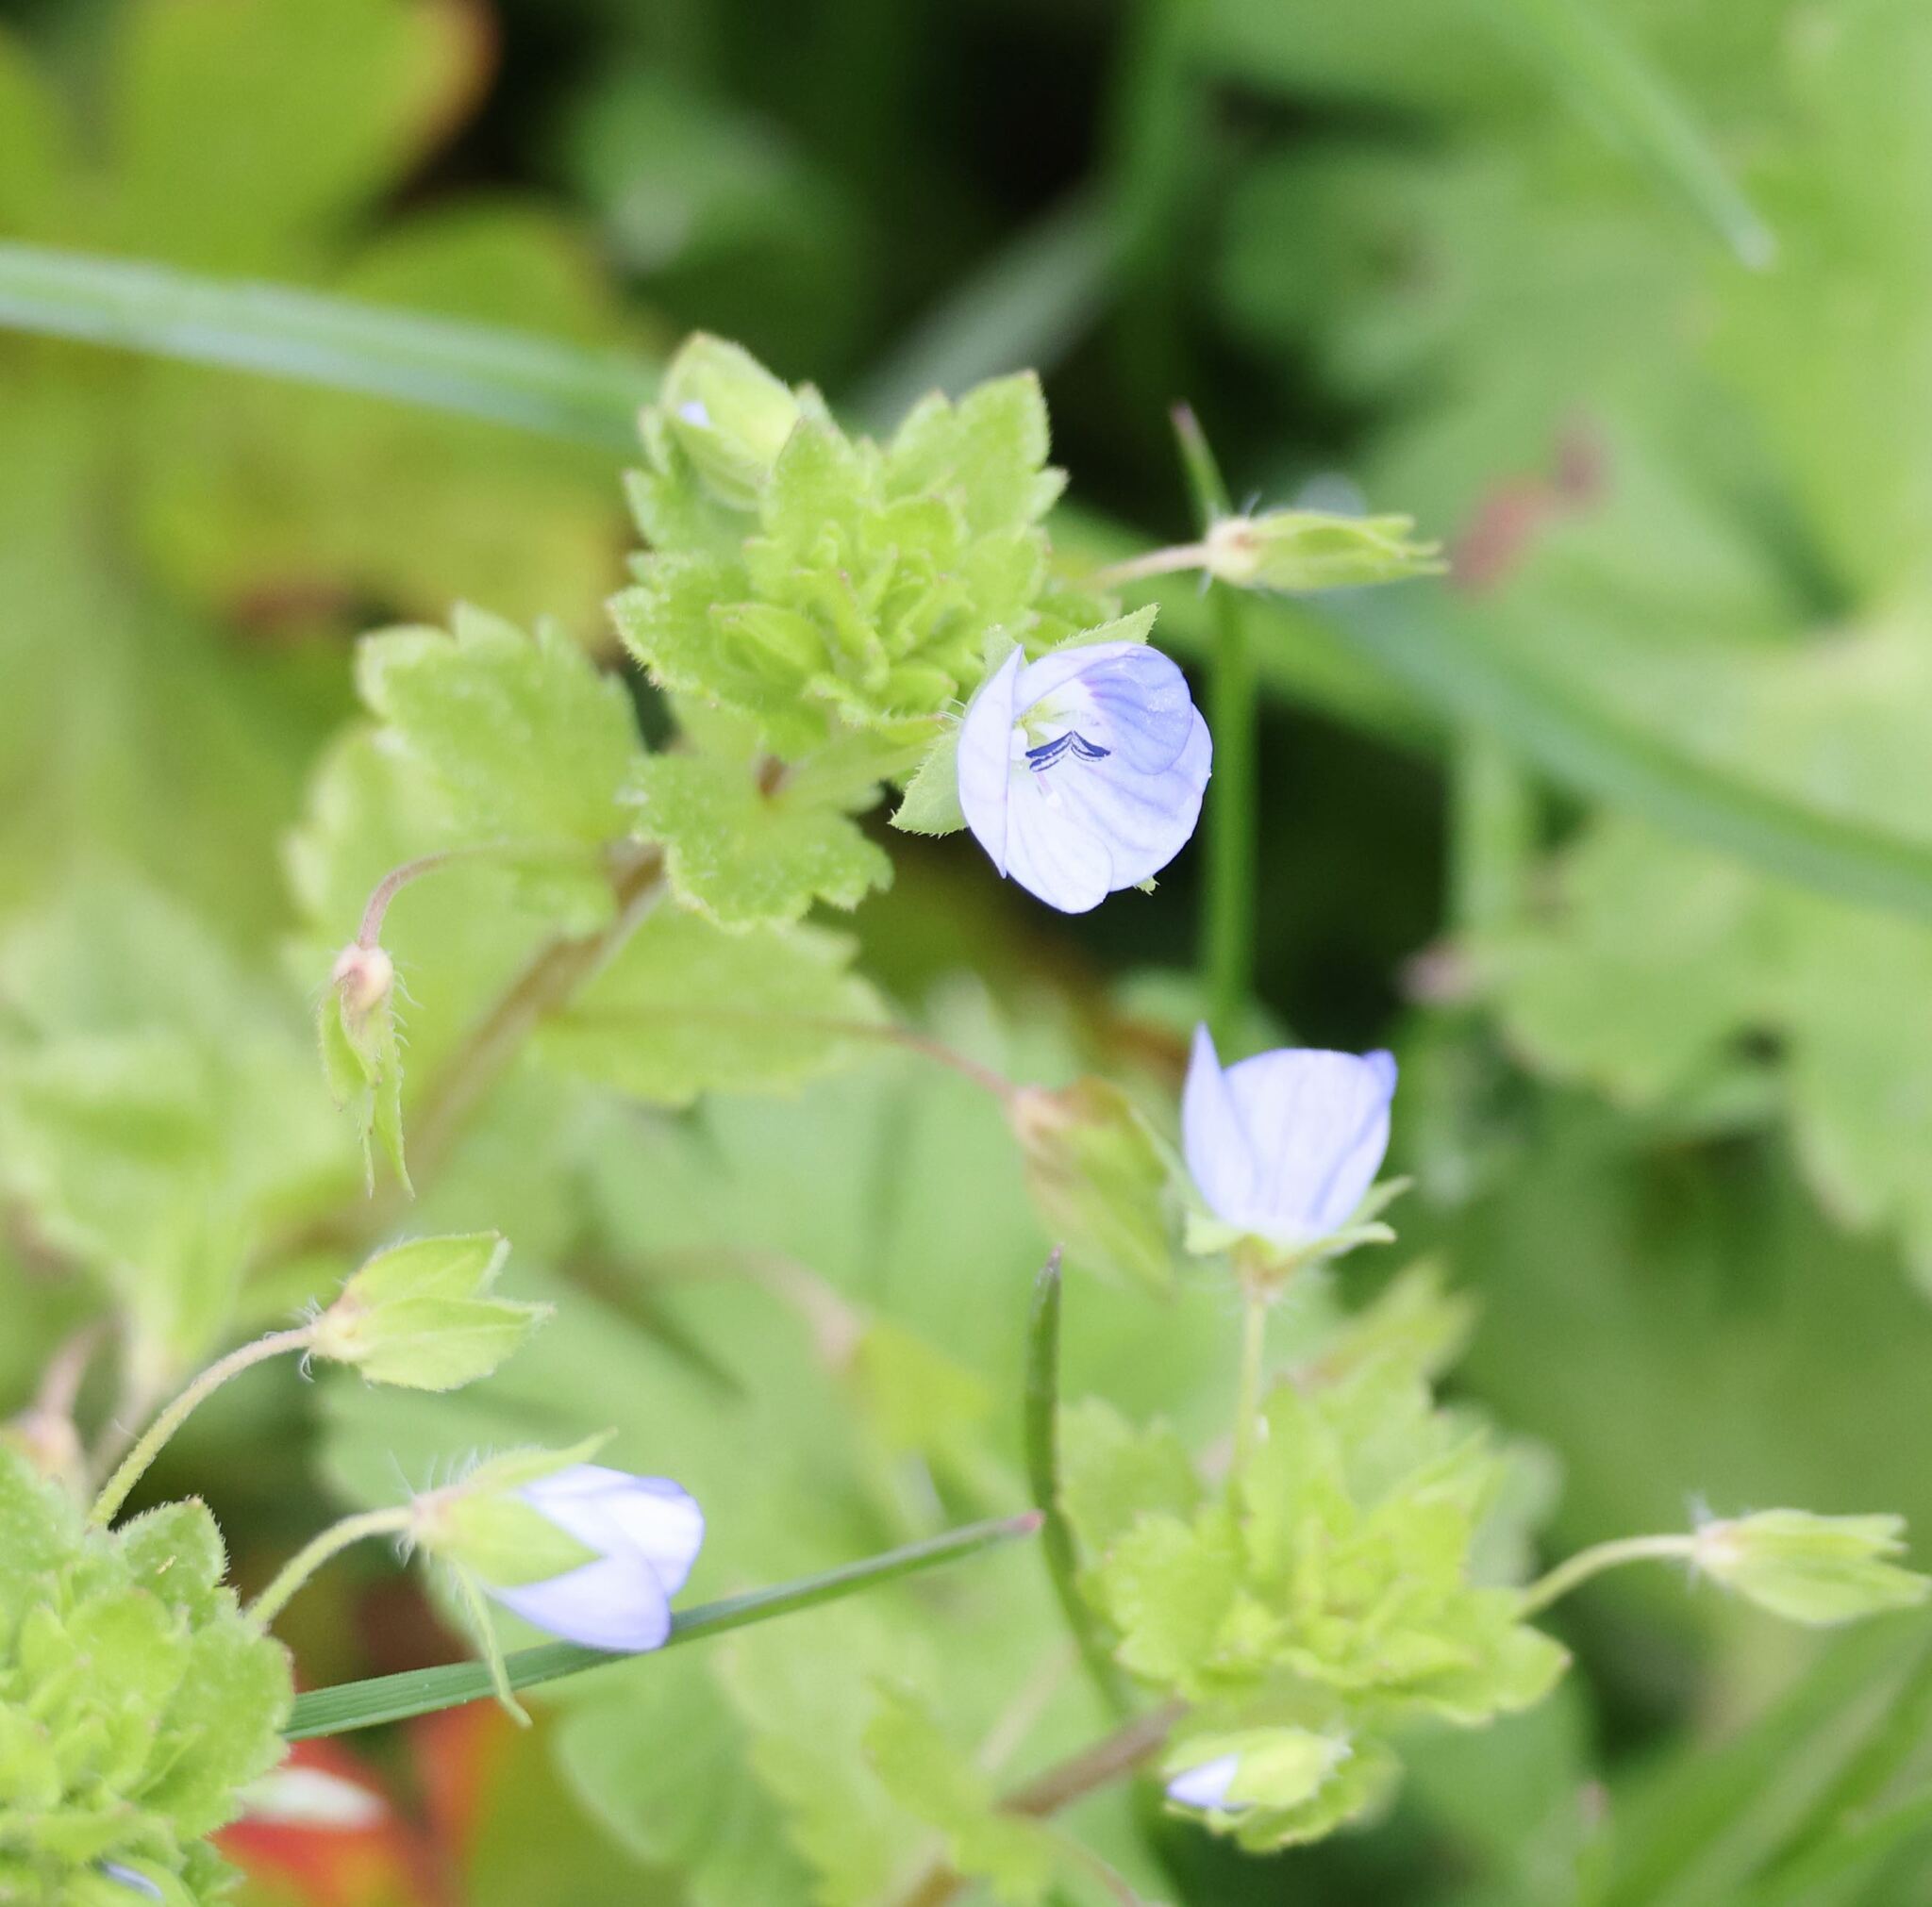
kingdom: Plantae
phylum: Tracheophyta
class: Magnoliopsida
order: Lamiales
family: Plantaginaceae
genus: Veronica
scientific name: Veronica persica
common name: Common field-speedwell
